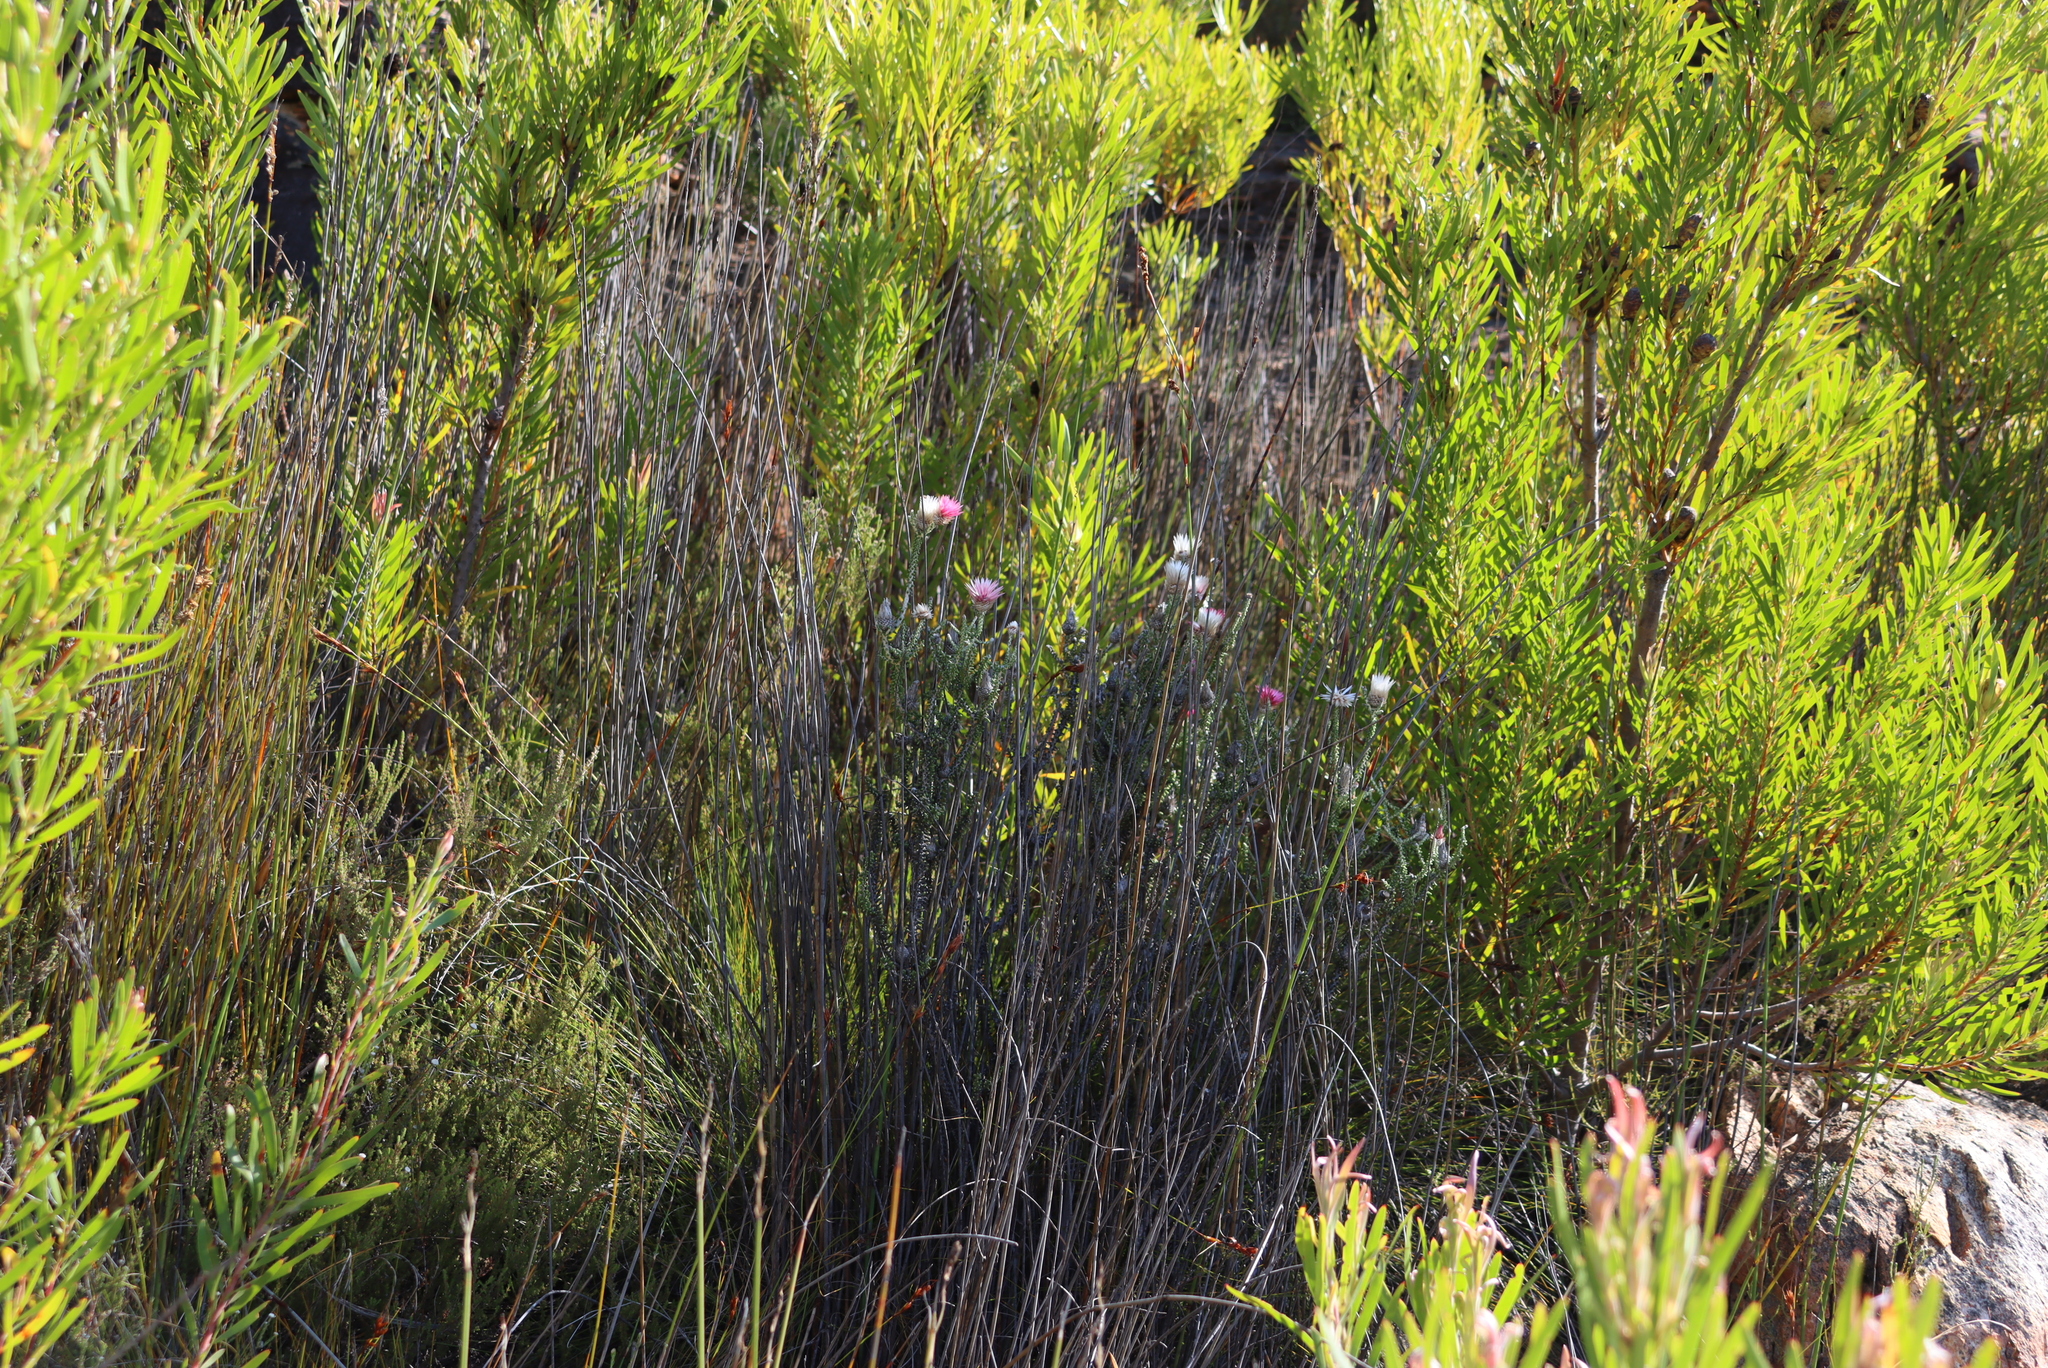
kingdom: Plantae
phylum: Tracheophyta
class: Magnoliopsida
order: Asterales
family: Asteraceae
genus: Phaenocoma
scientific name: Phaenocoma prolifera
